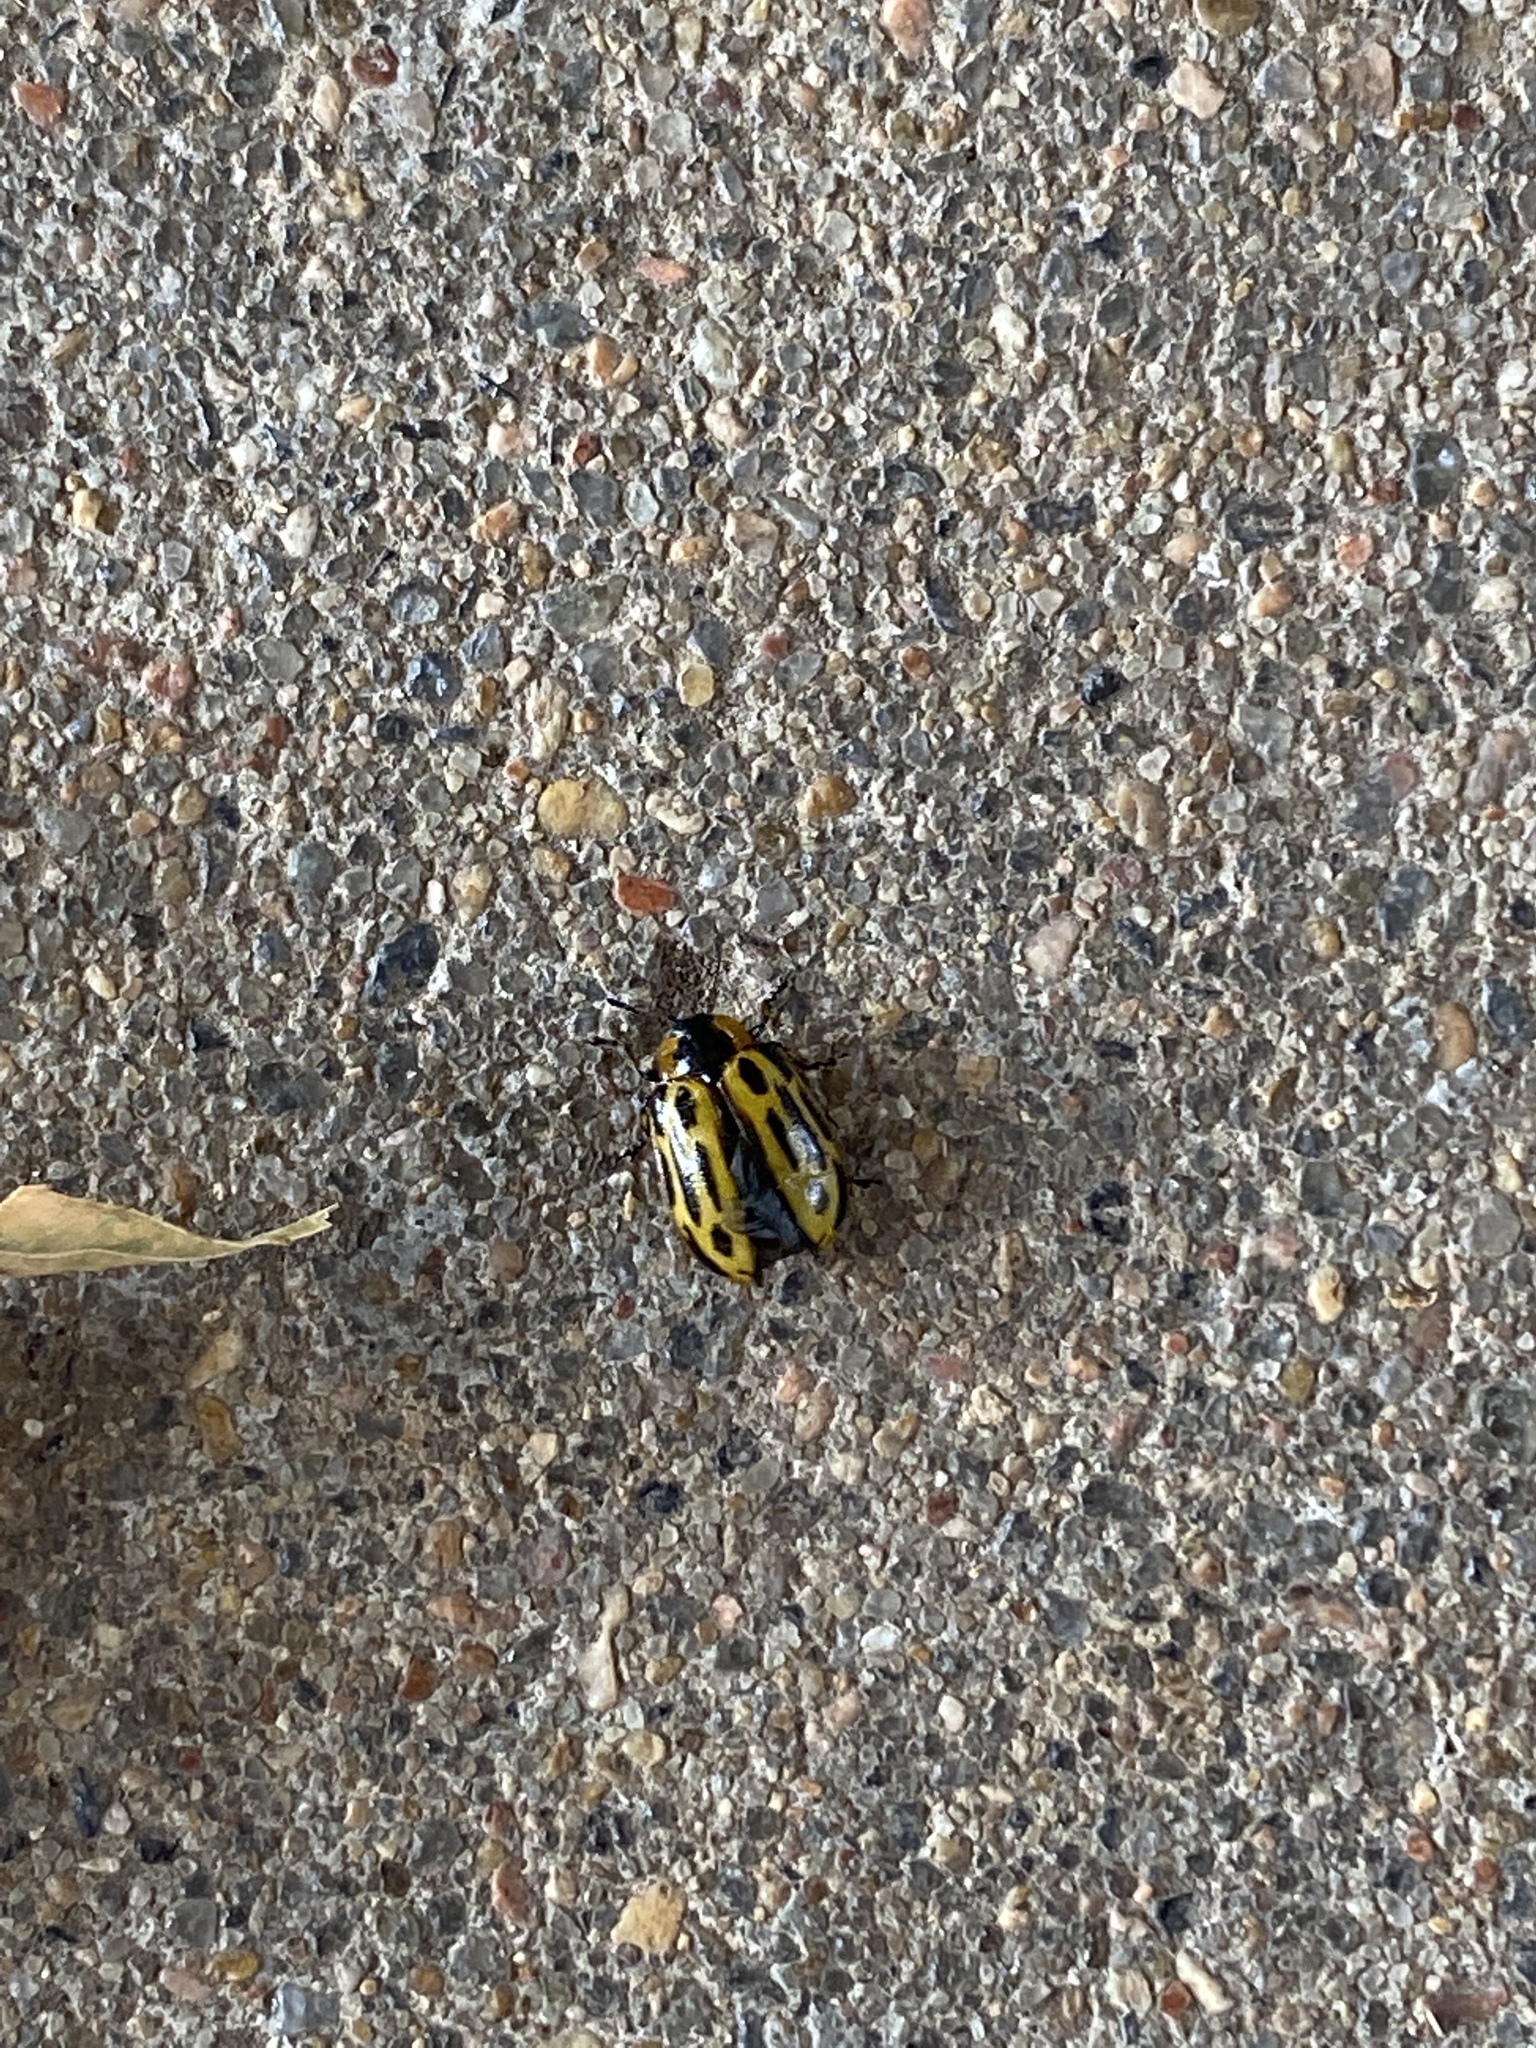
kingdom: Animalia
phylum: Arthropoda
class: Insecta
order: Coleoptera
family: Chrysomelidae
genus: Aethiopocassis
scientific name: Aethiopocassis scripta
